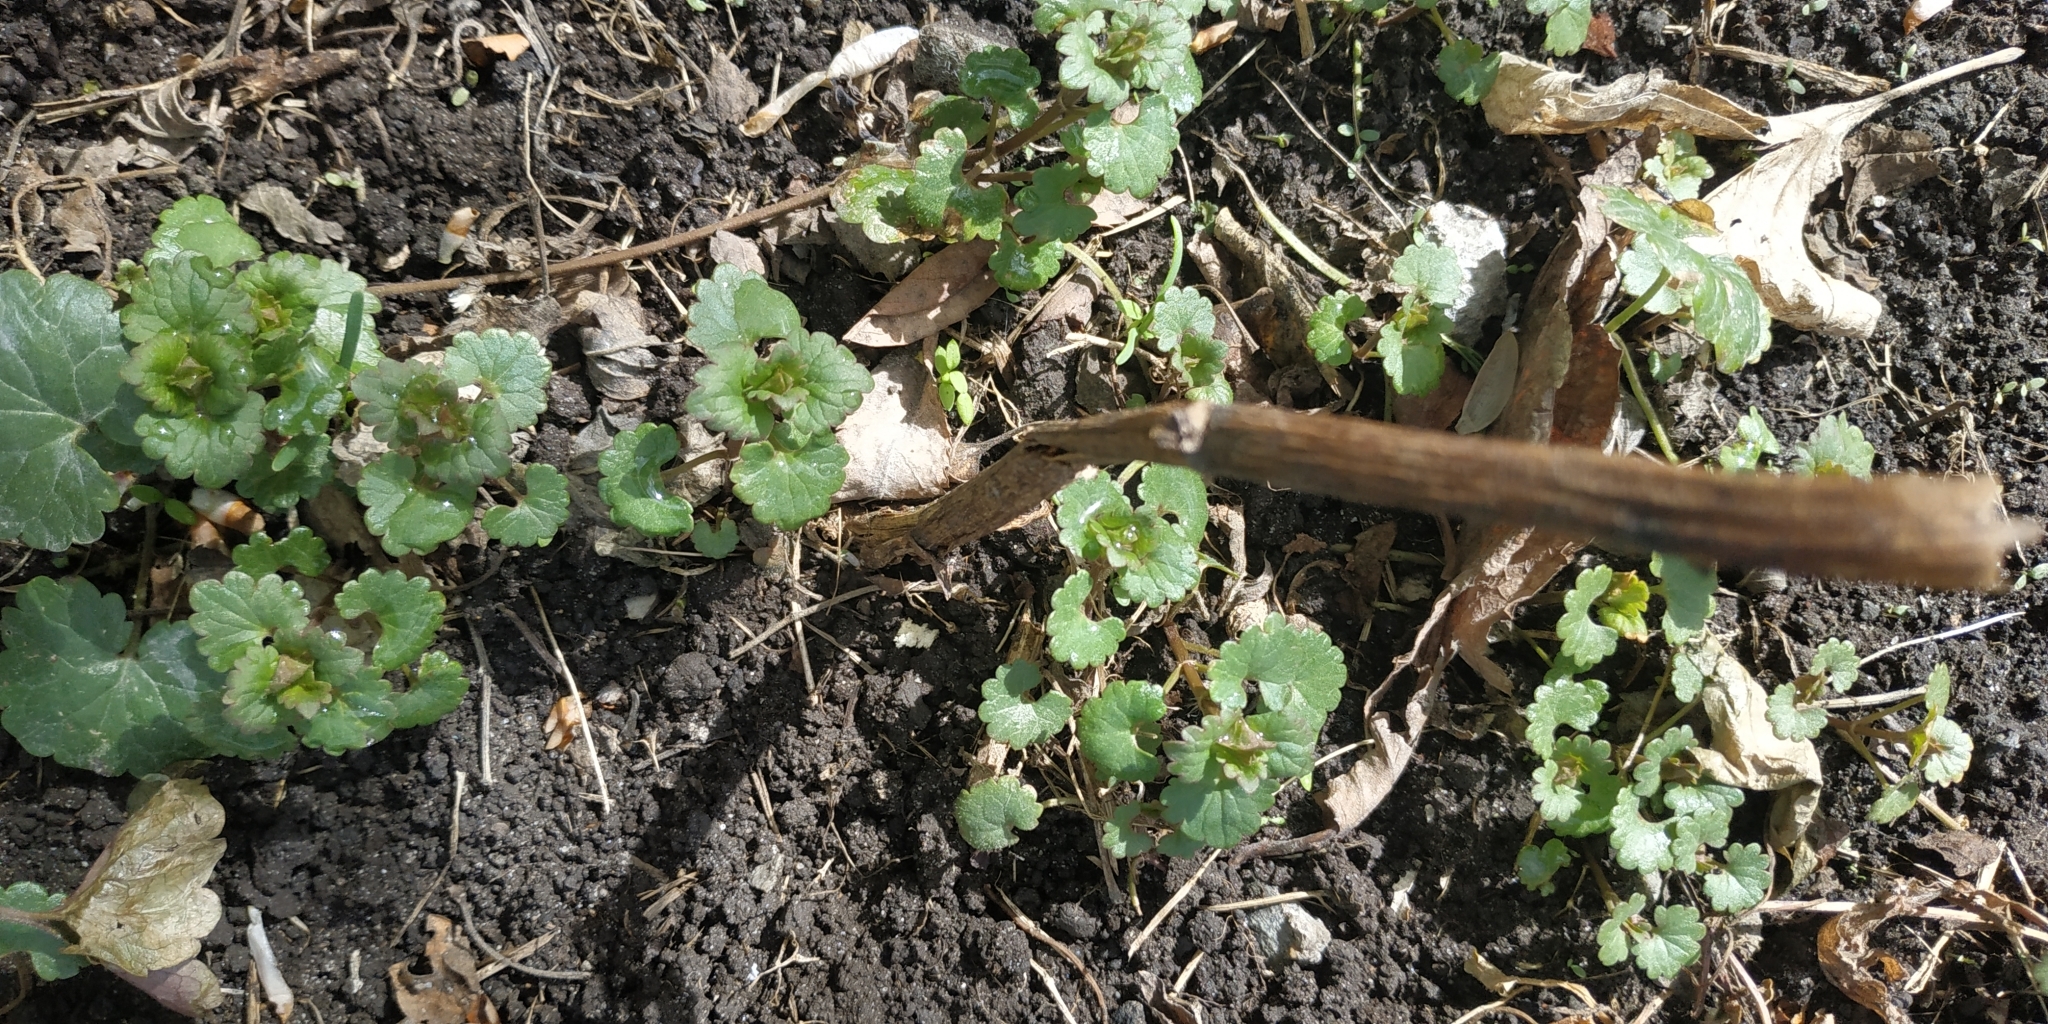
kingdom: Plantae
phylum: Tracheophyta
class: Magnoliopsida
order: Lamiales
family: Lamiaceae
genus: Glechoma
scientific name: Glechoma hederacea
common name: Ground ivy
